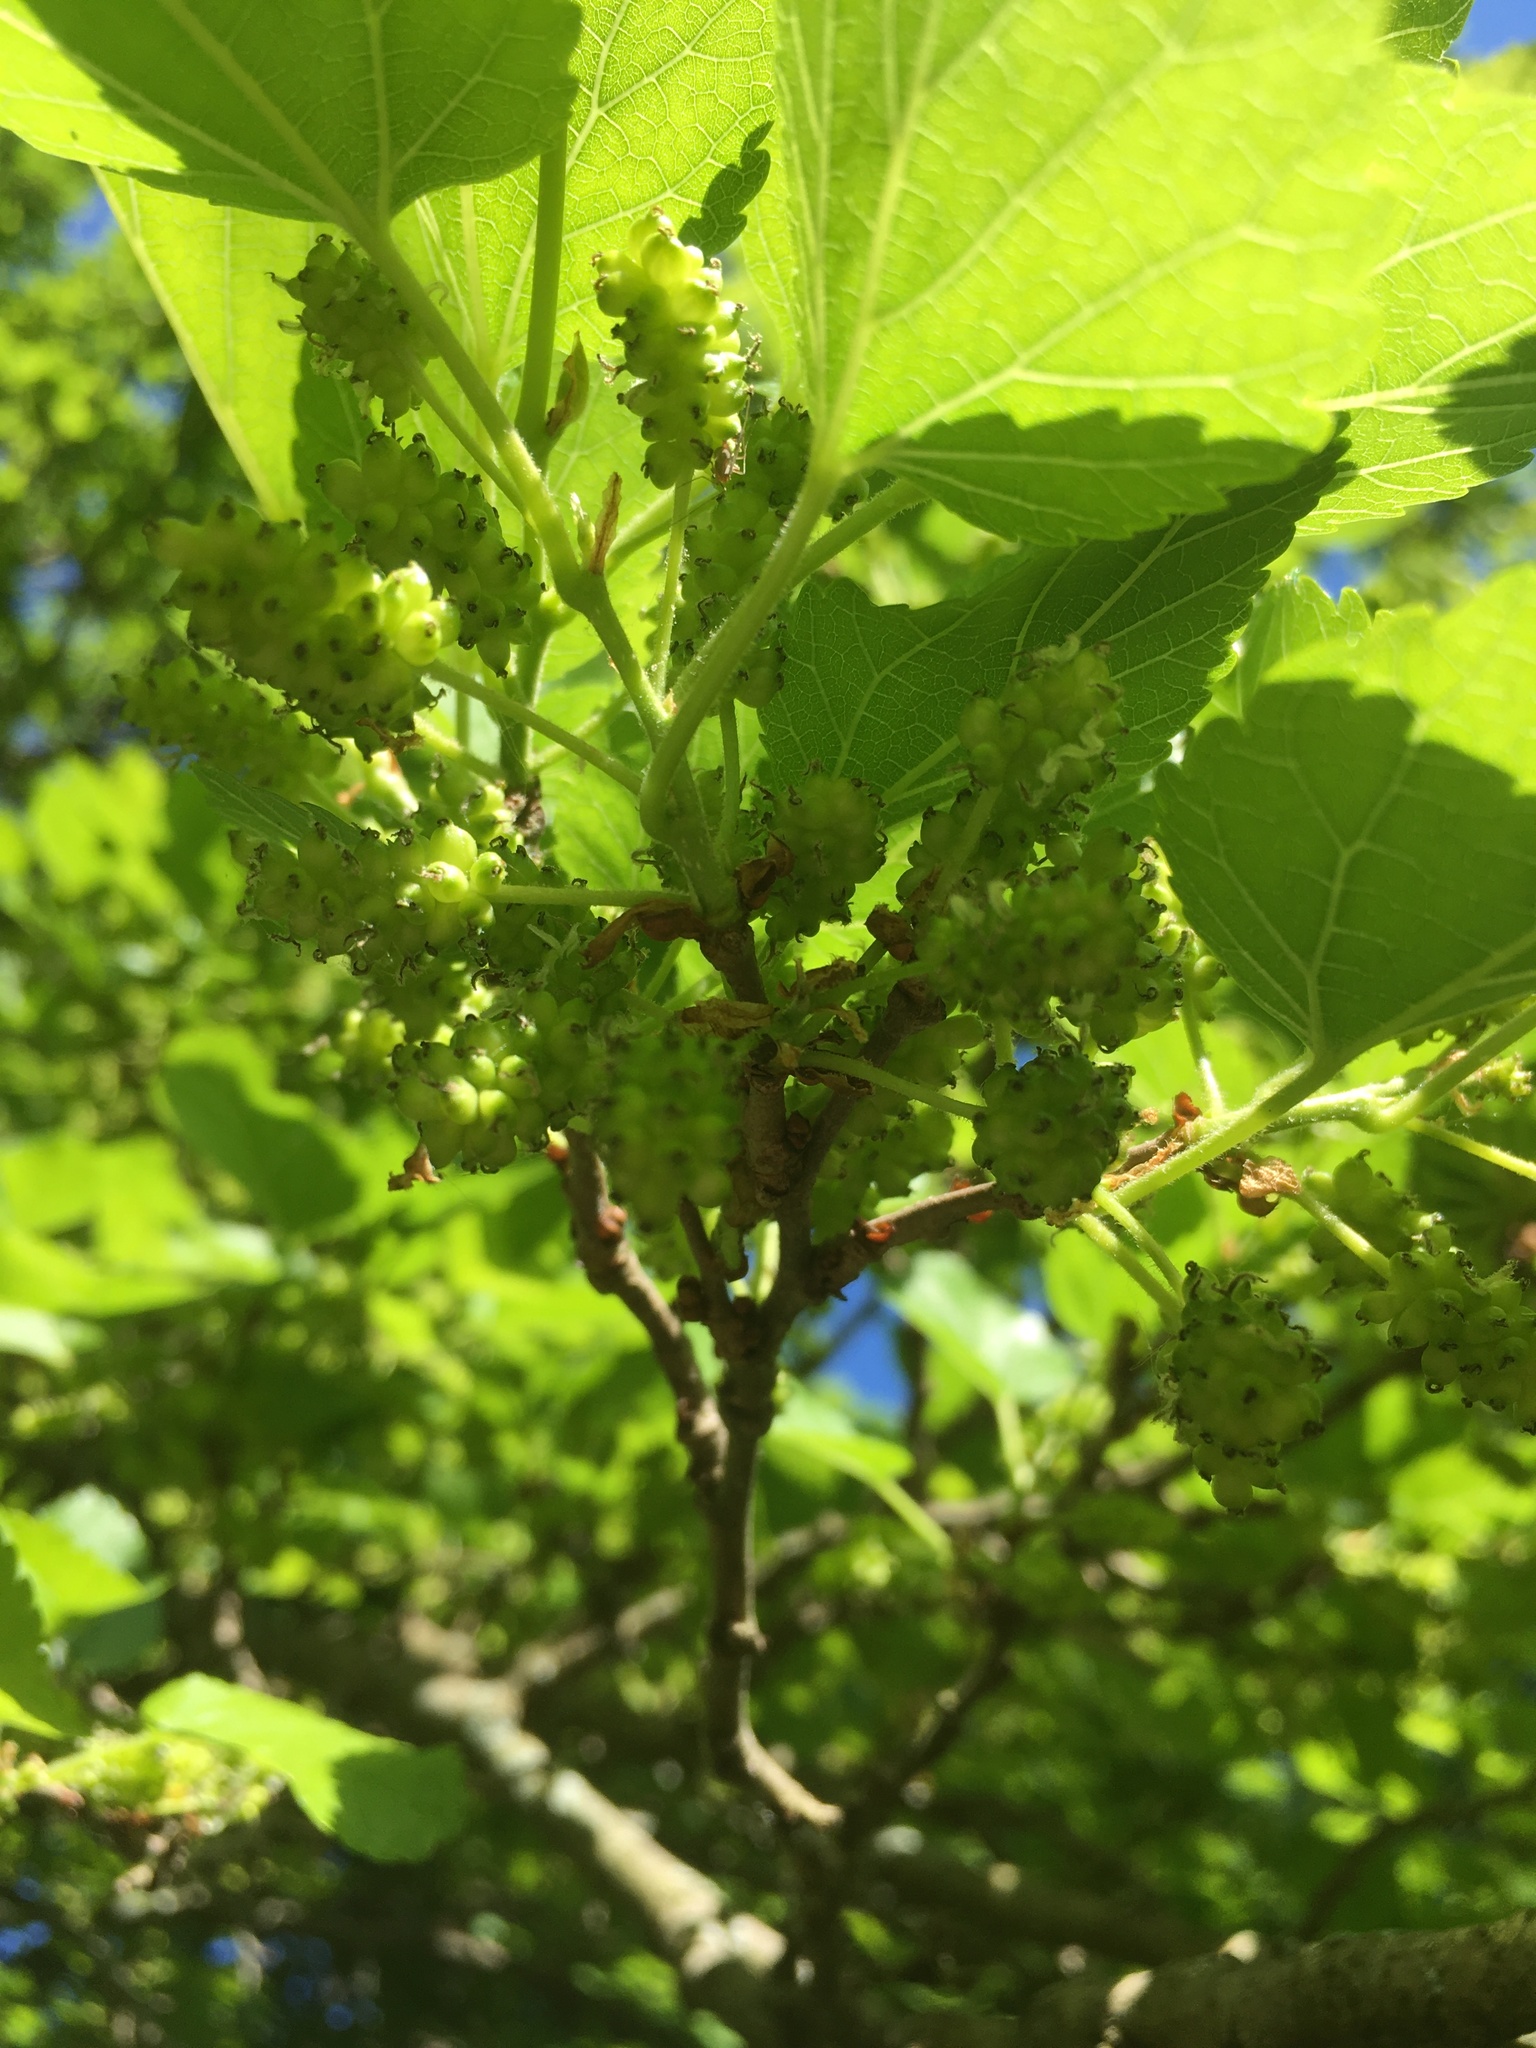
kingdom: Plantae
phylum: Tracheophyta
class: Magnoliopsida
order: Rosales
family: Moraceae
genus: Morus
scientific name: Morus alba
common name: White mulberry
